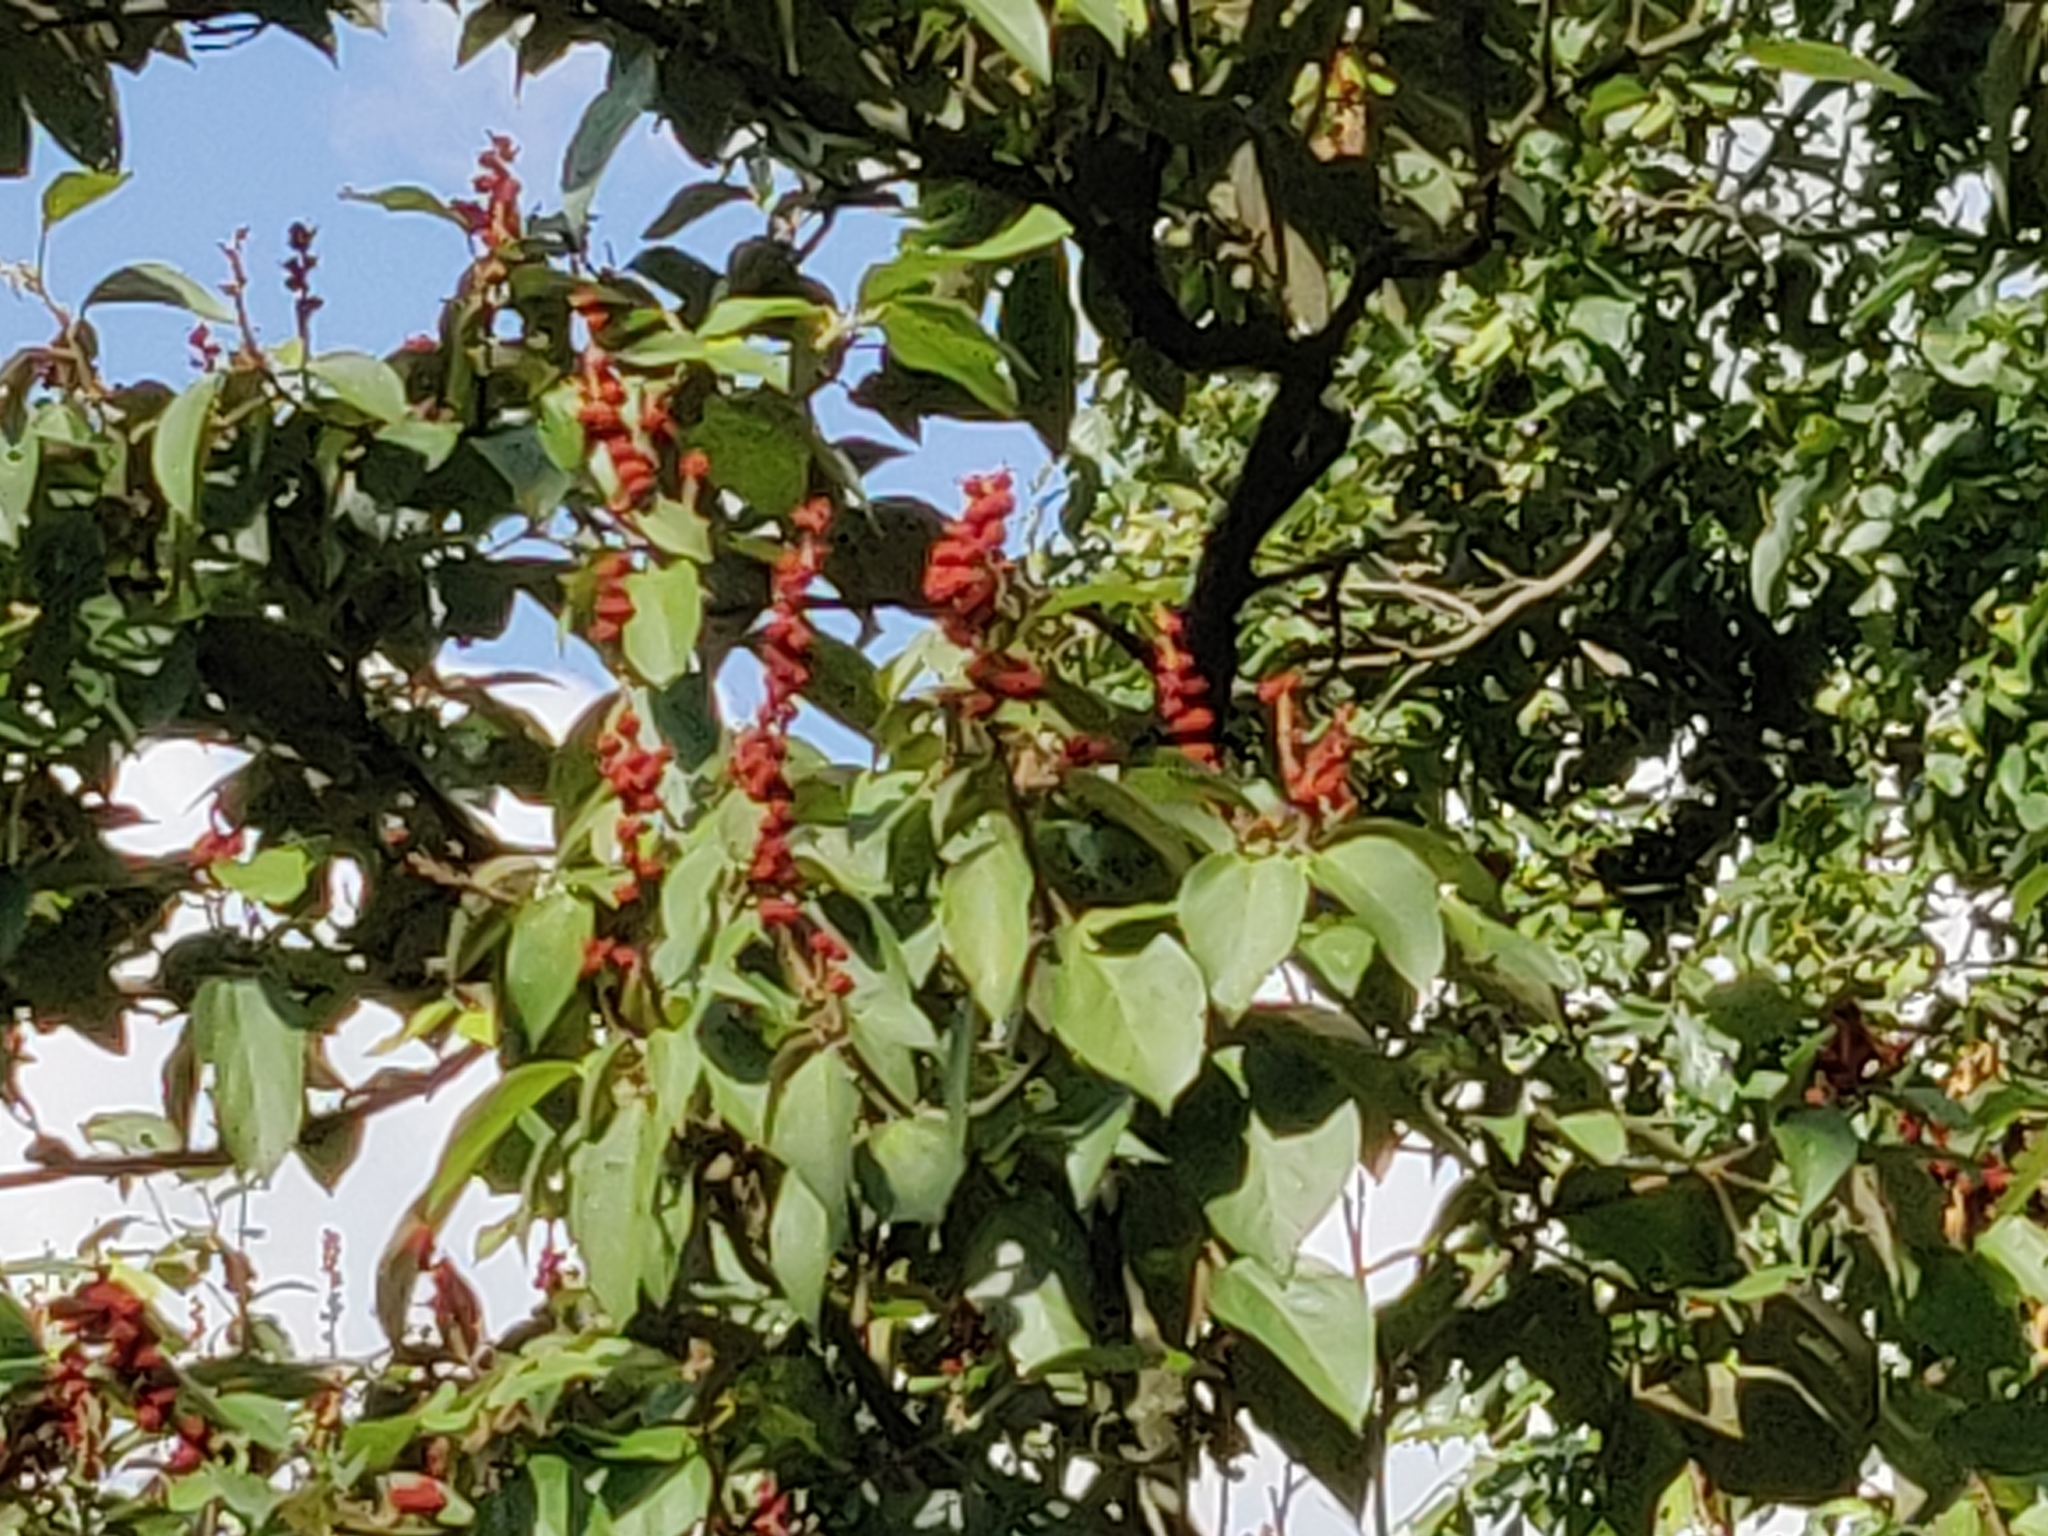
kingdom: Plantae
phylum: Tracheophyta
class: Magnoliopsida
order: Malpighiales
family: Euphorbiaceae
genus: Mallotus
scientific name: Mallotus philippensis
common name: Kamala tree
